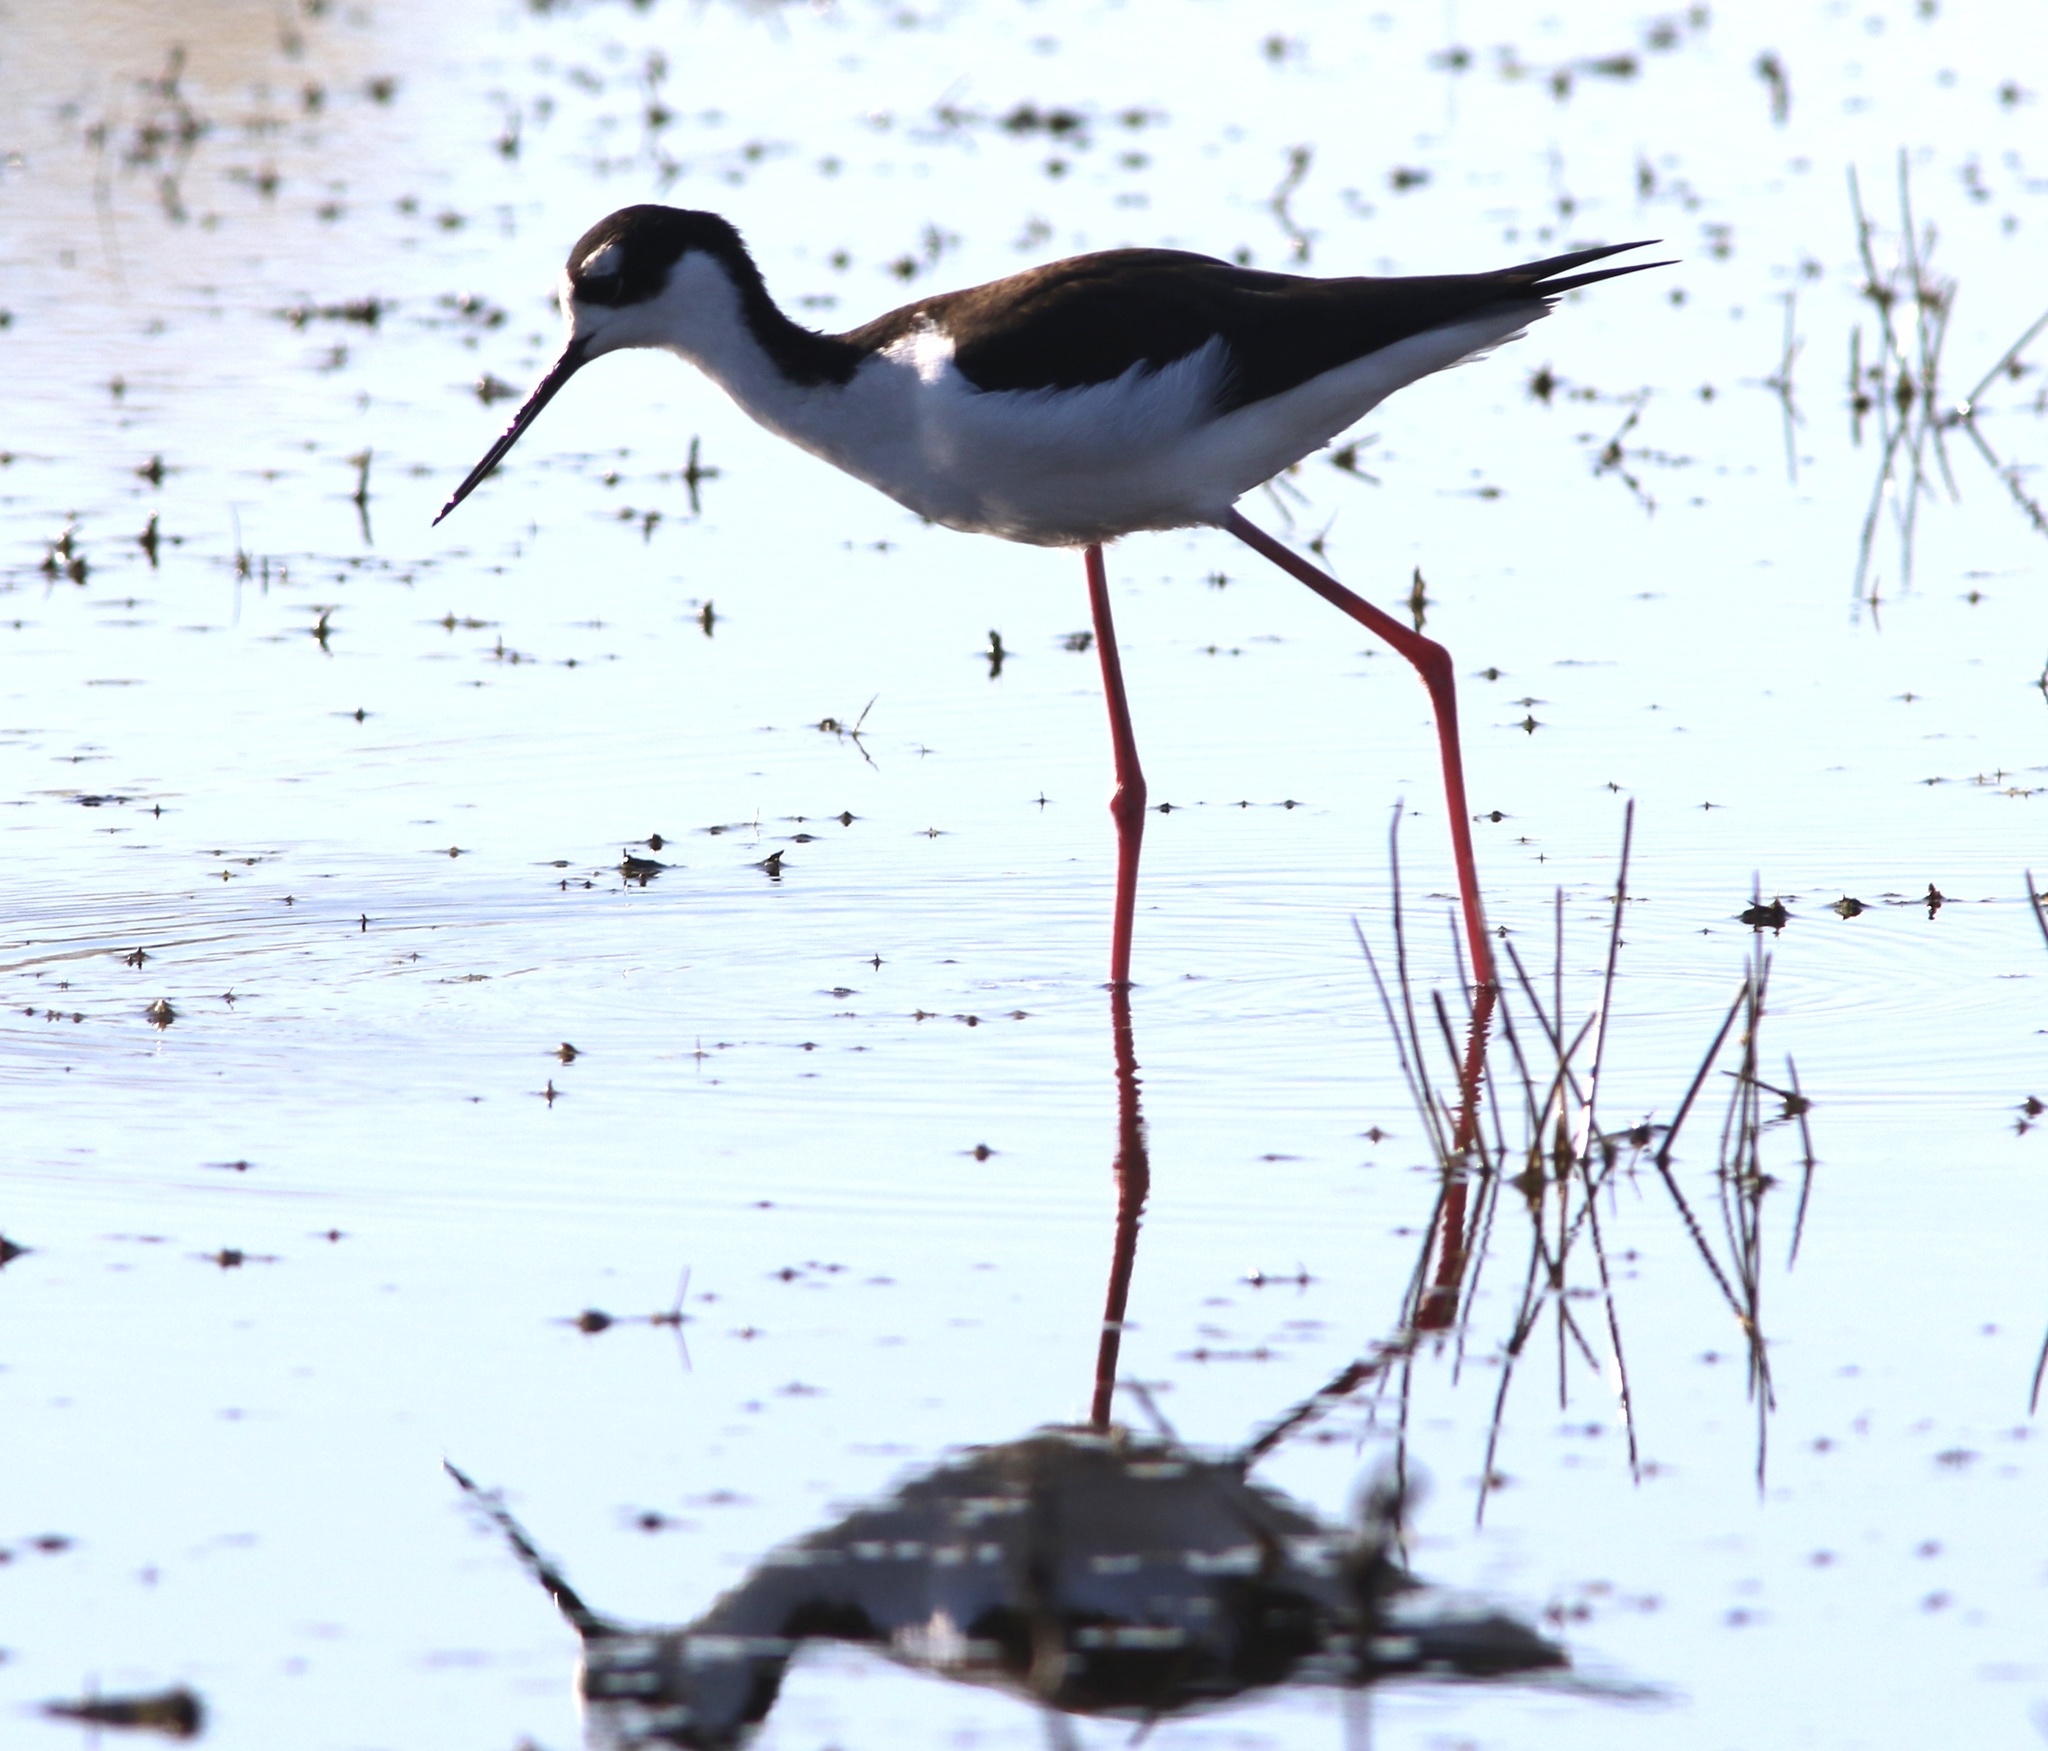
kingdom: Animalia
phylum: Chordata
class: Aves
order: Charadriiformes
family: Recurvirostridae
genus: Himantopus
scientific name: Himantopus mexicanus
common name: Black-necked stilt
